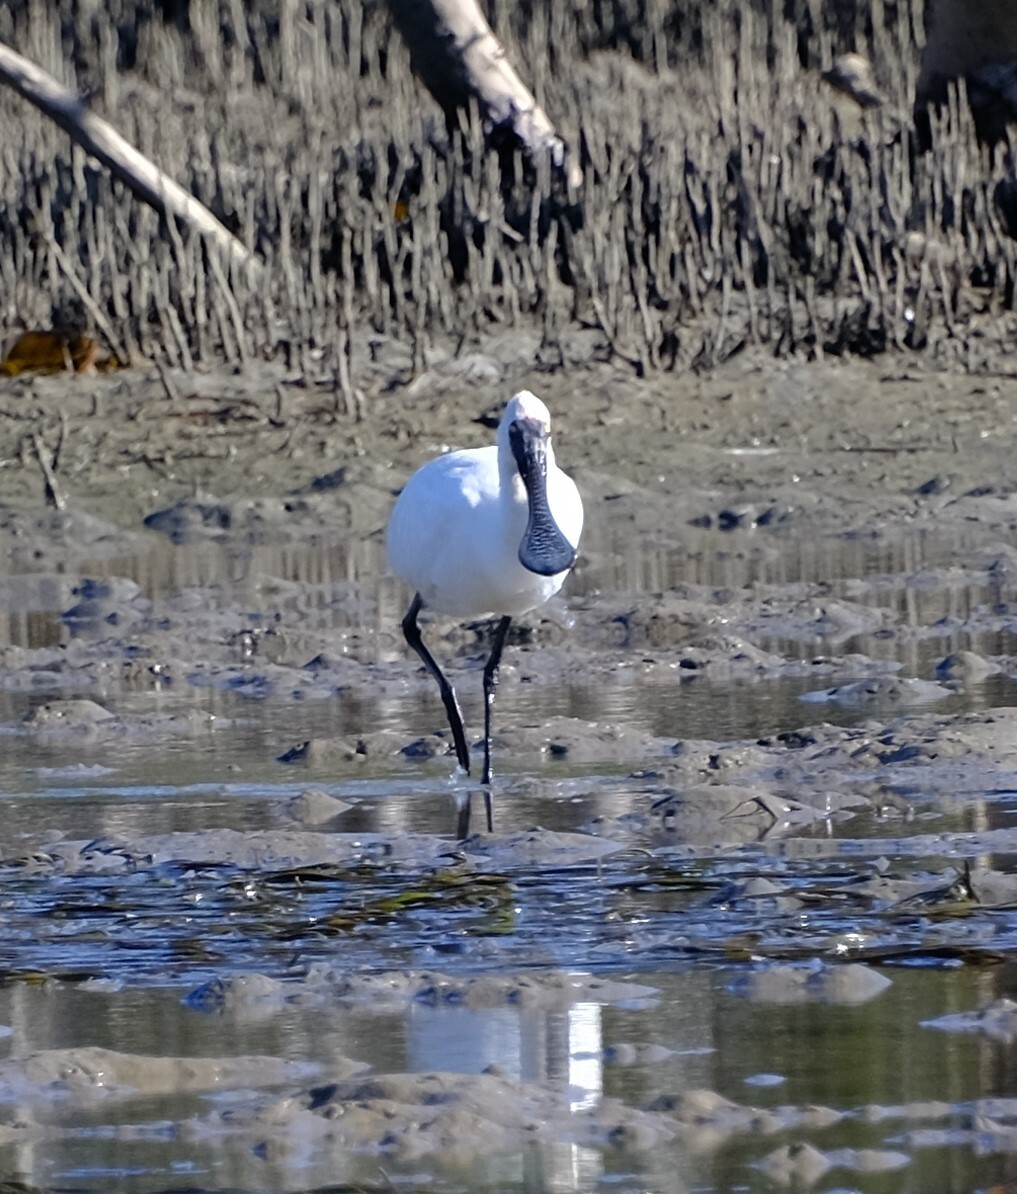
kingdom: Animalia
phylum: Chordata
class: Aves
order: Pelecaniformes
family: Threskiornithidae
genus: Platalea
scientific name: Platalea regia
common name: Royal spoonbill
